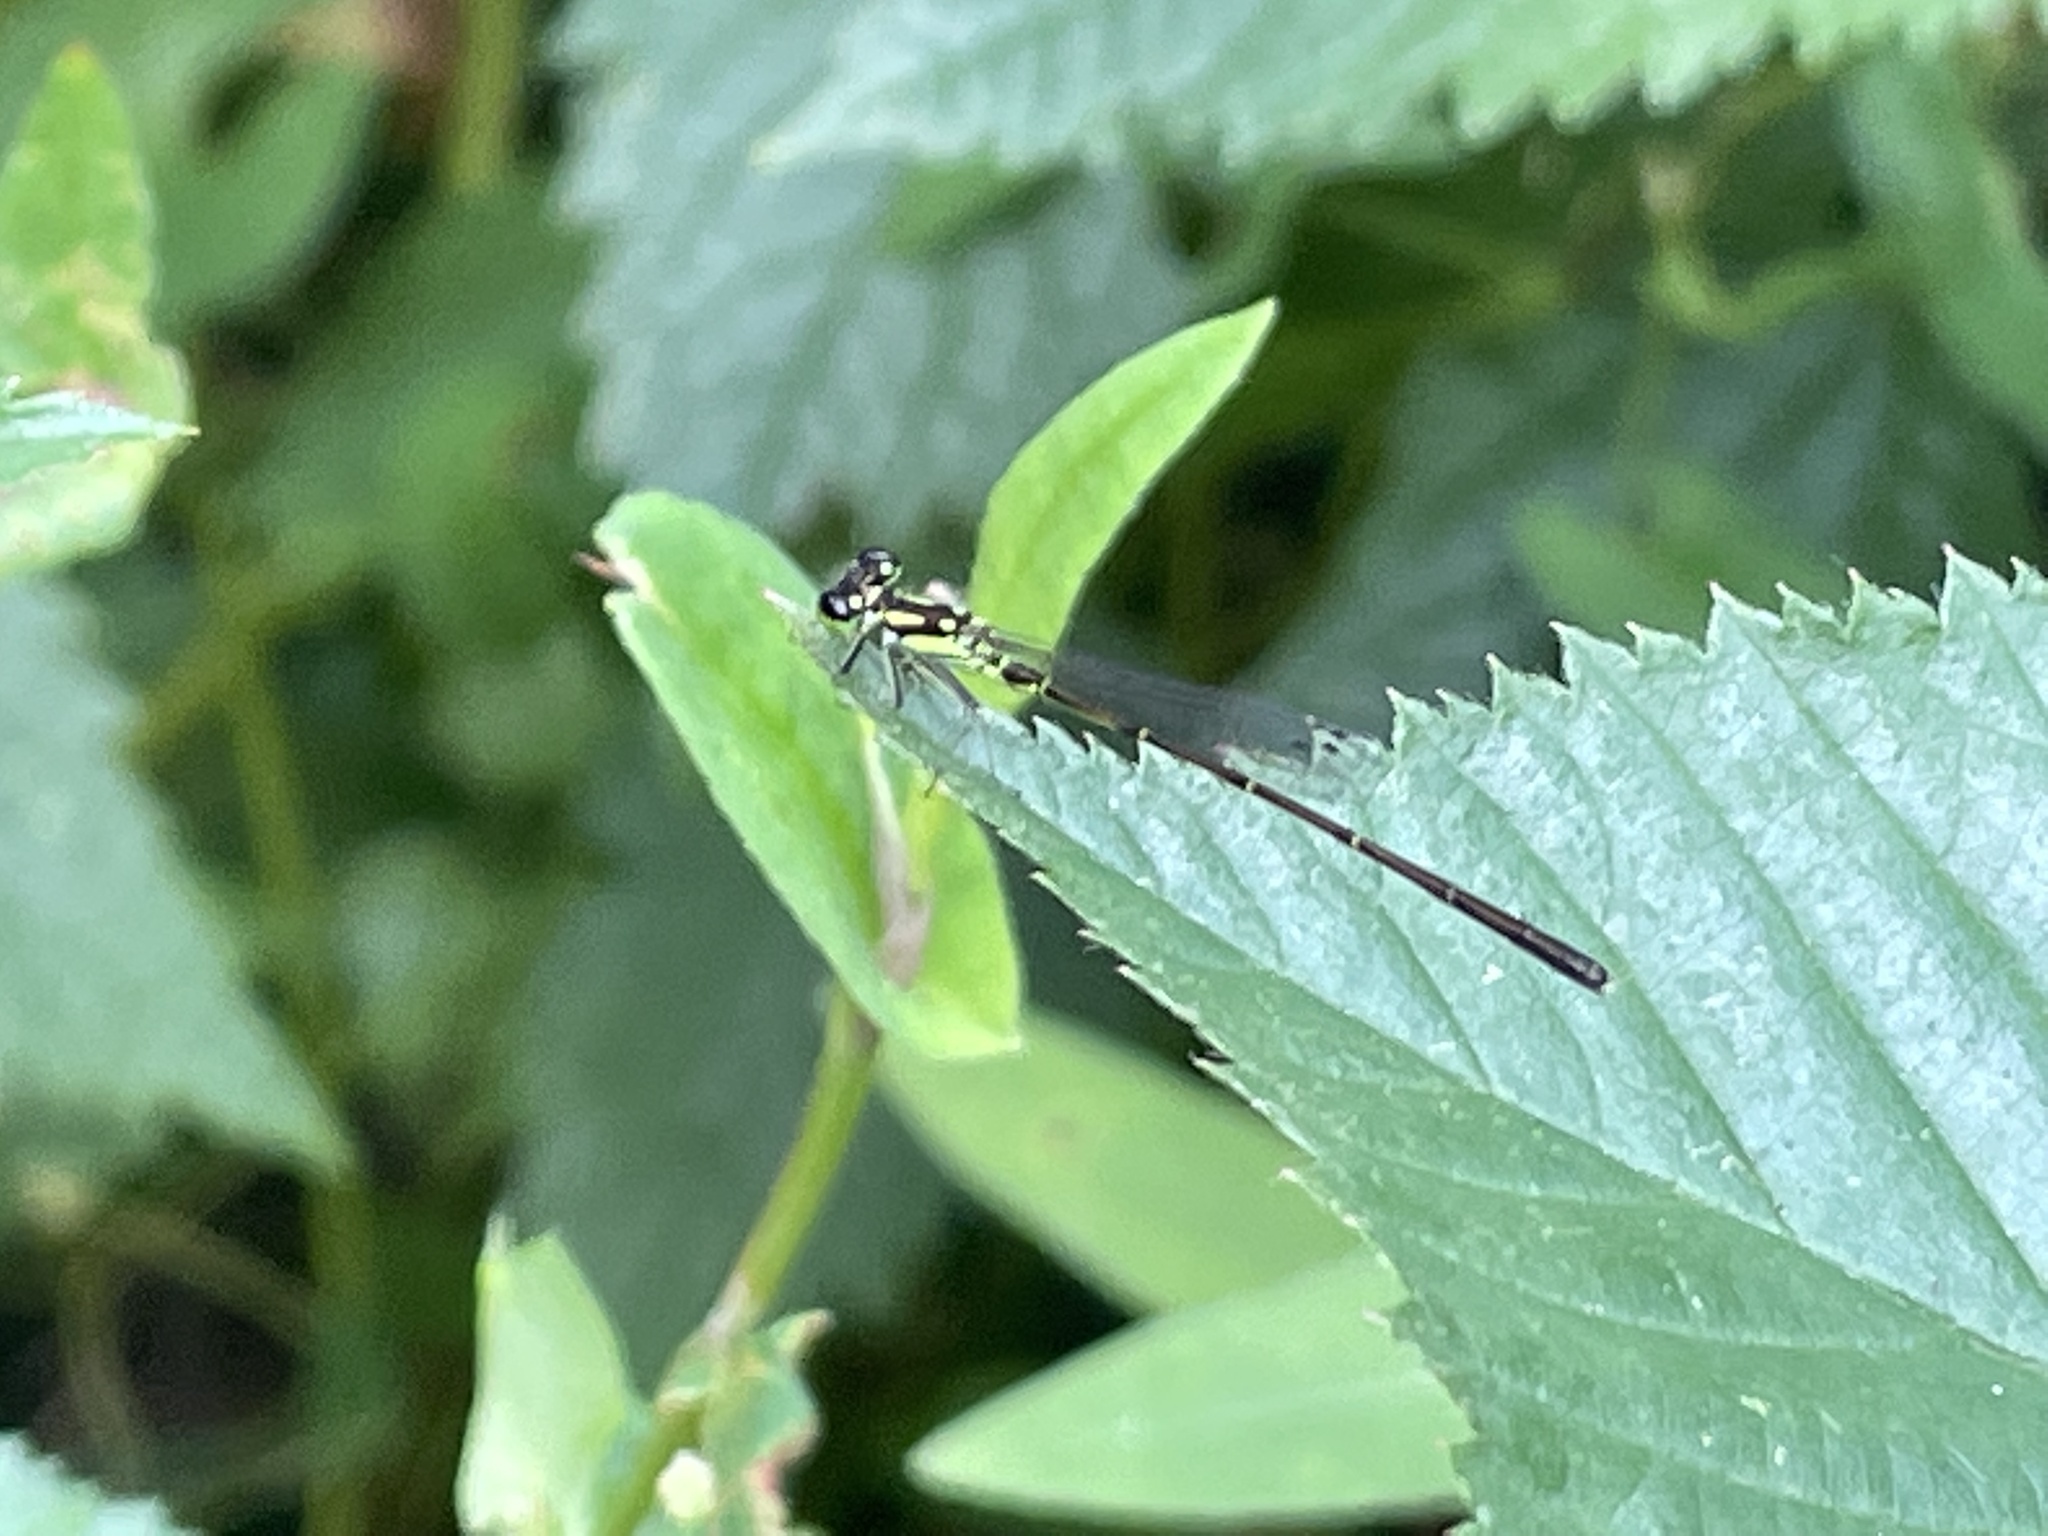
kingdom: Animalia
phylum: Arthropoda
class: Insecta
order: Odonata
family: Coenagrionidae
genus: Ischnura
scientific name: Ischnura posita
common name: Fragile forktail
